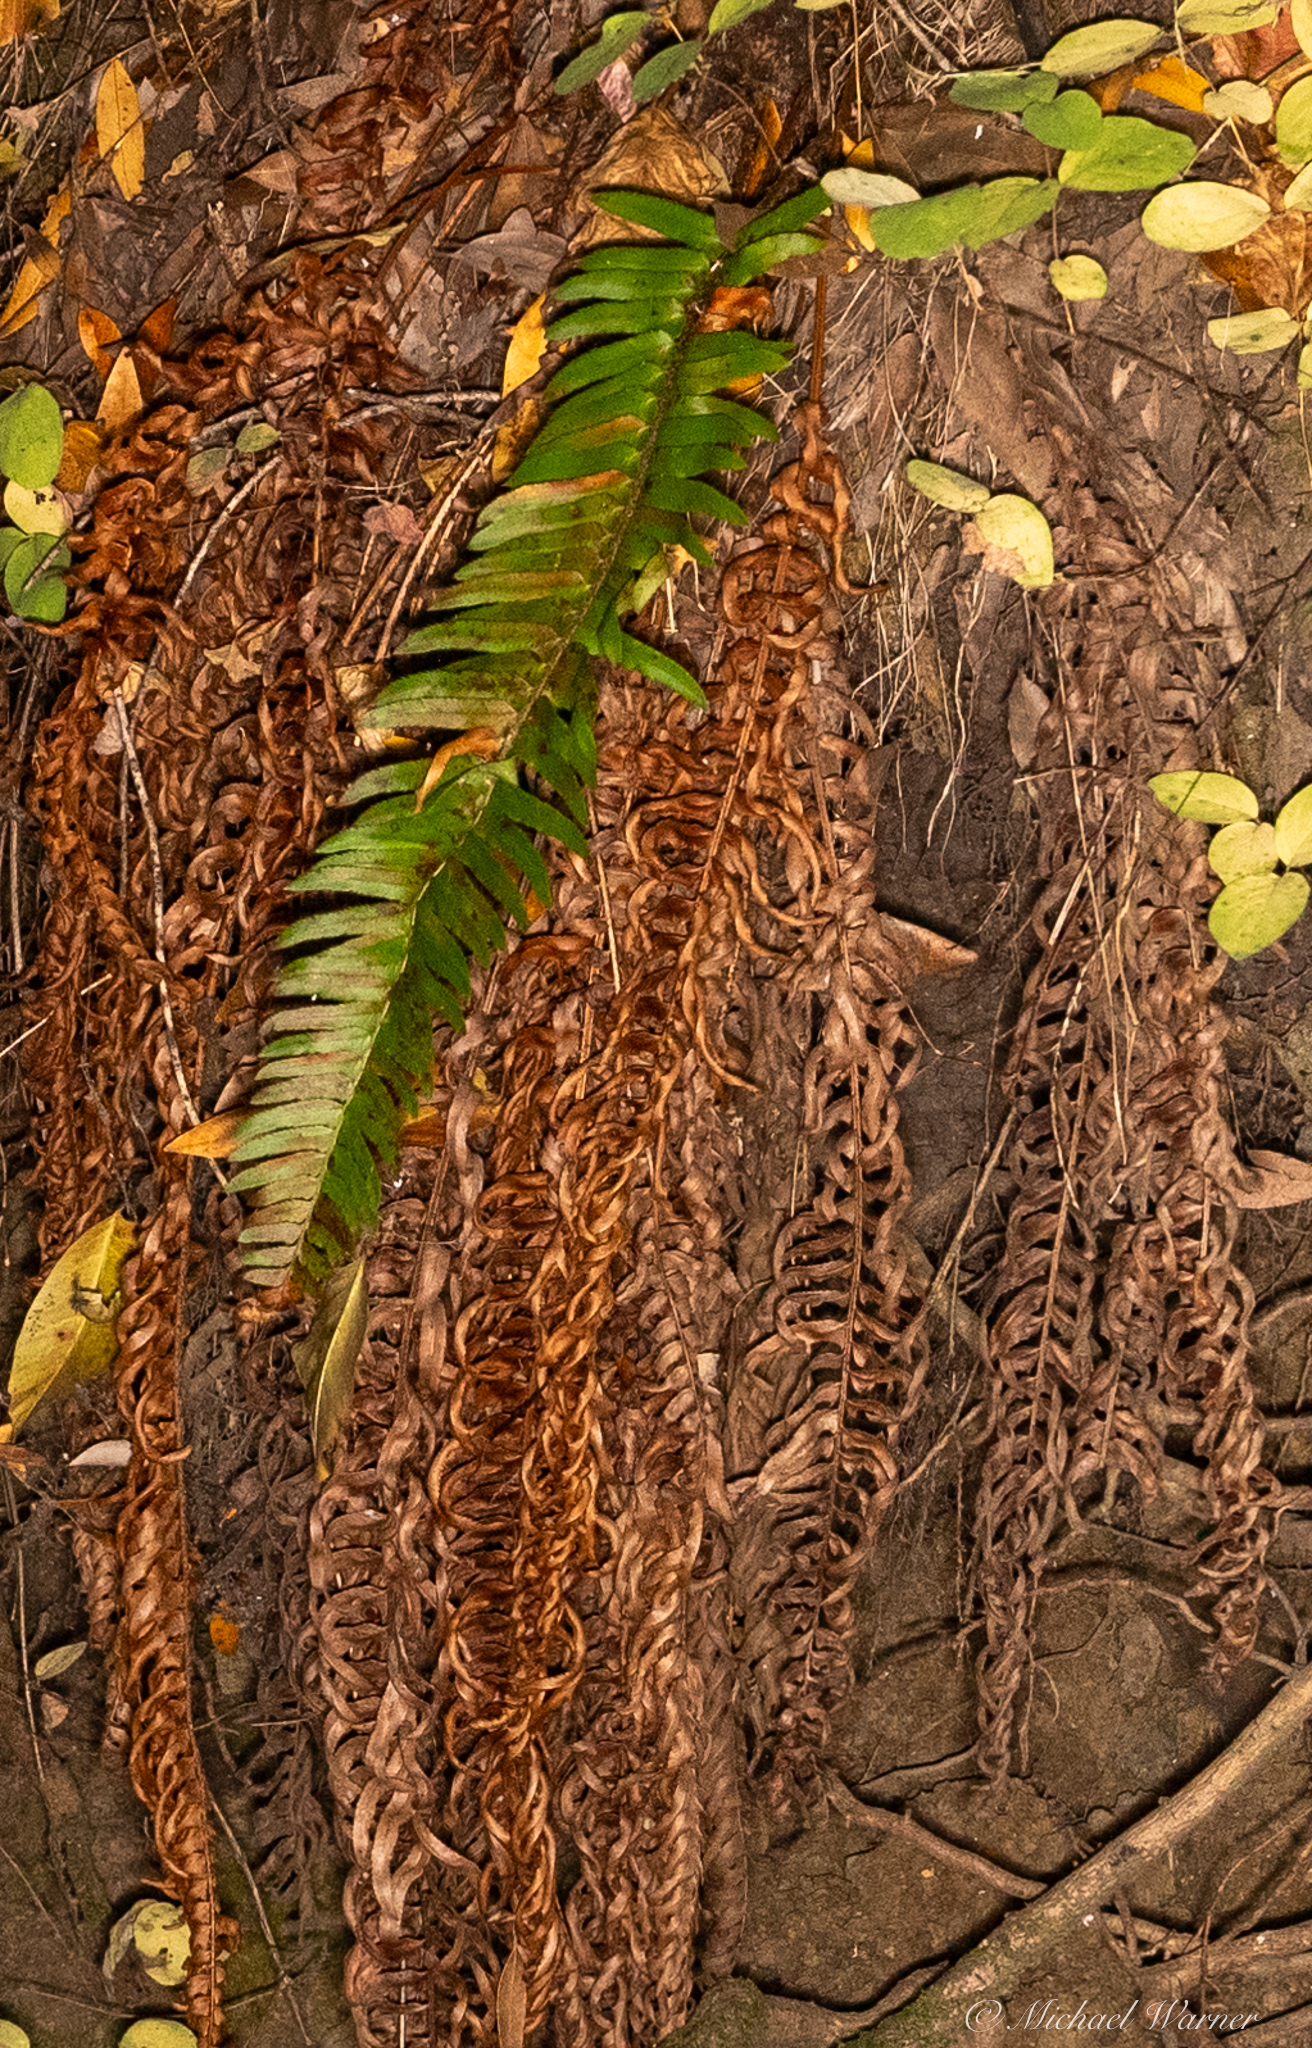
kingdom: Plantae
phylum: Tracheophyta
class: Polypodiopsida
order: Polypodiales
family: Dryopteridaceae
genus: Polystichum
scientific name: Polystichum munitum
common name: Western sword-fern
